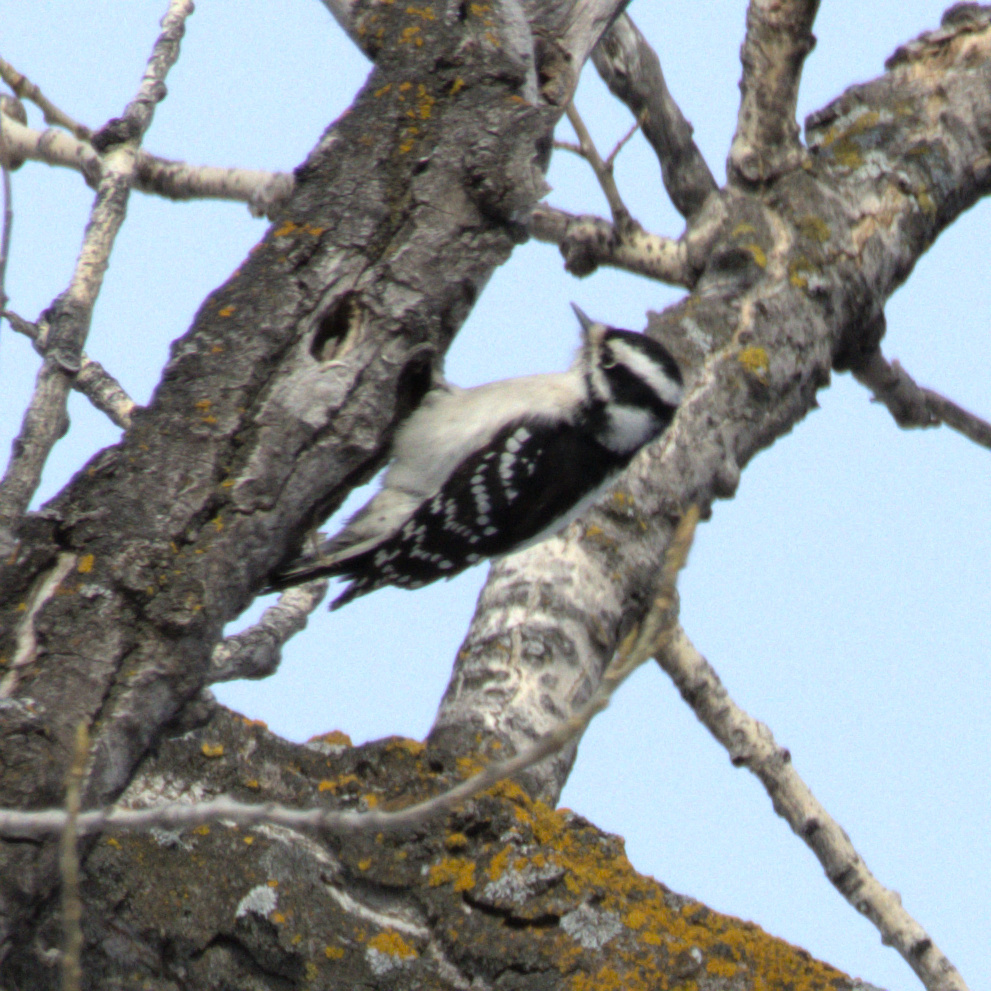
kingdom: Animalia
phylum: Chordata
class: Aves
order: Piciformes
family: Picidae
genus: Dryobates
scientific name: Dryobates pubescens
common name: Downy woodpecker
